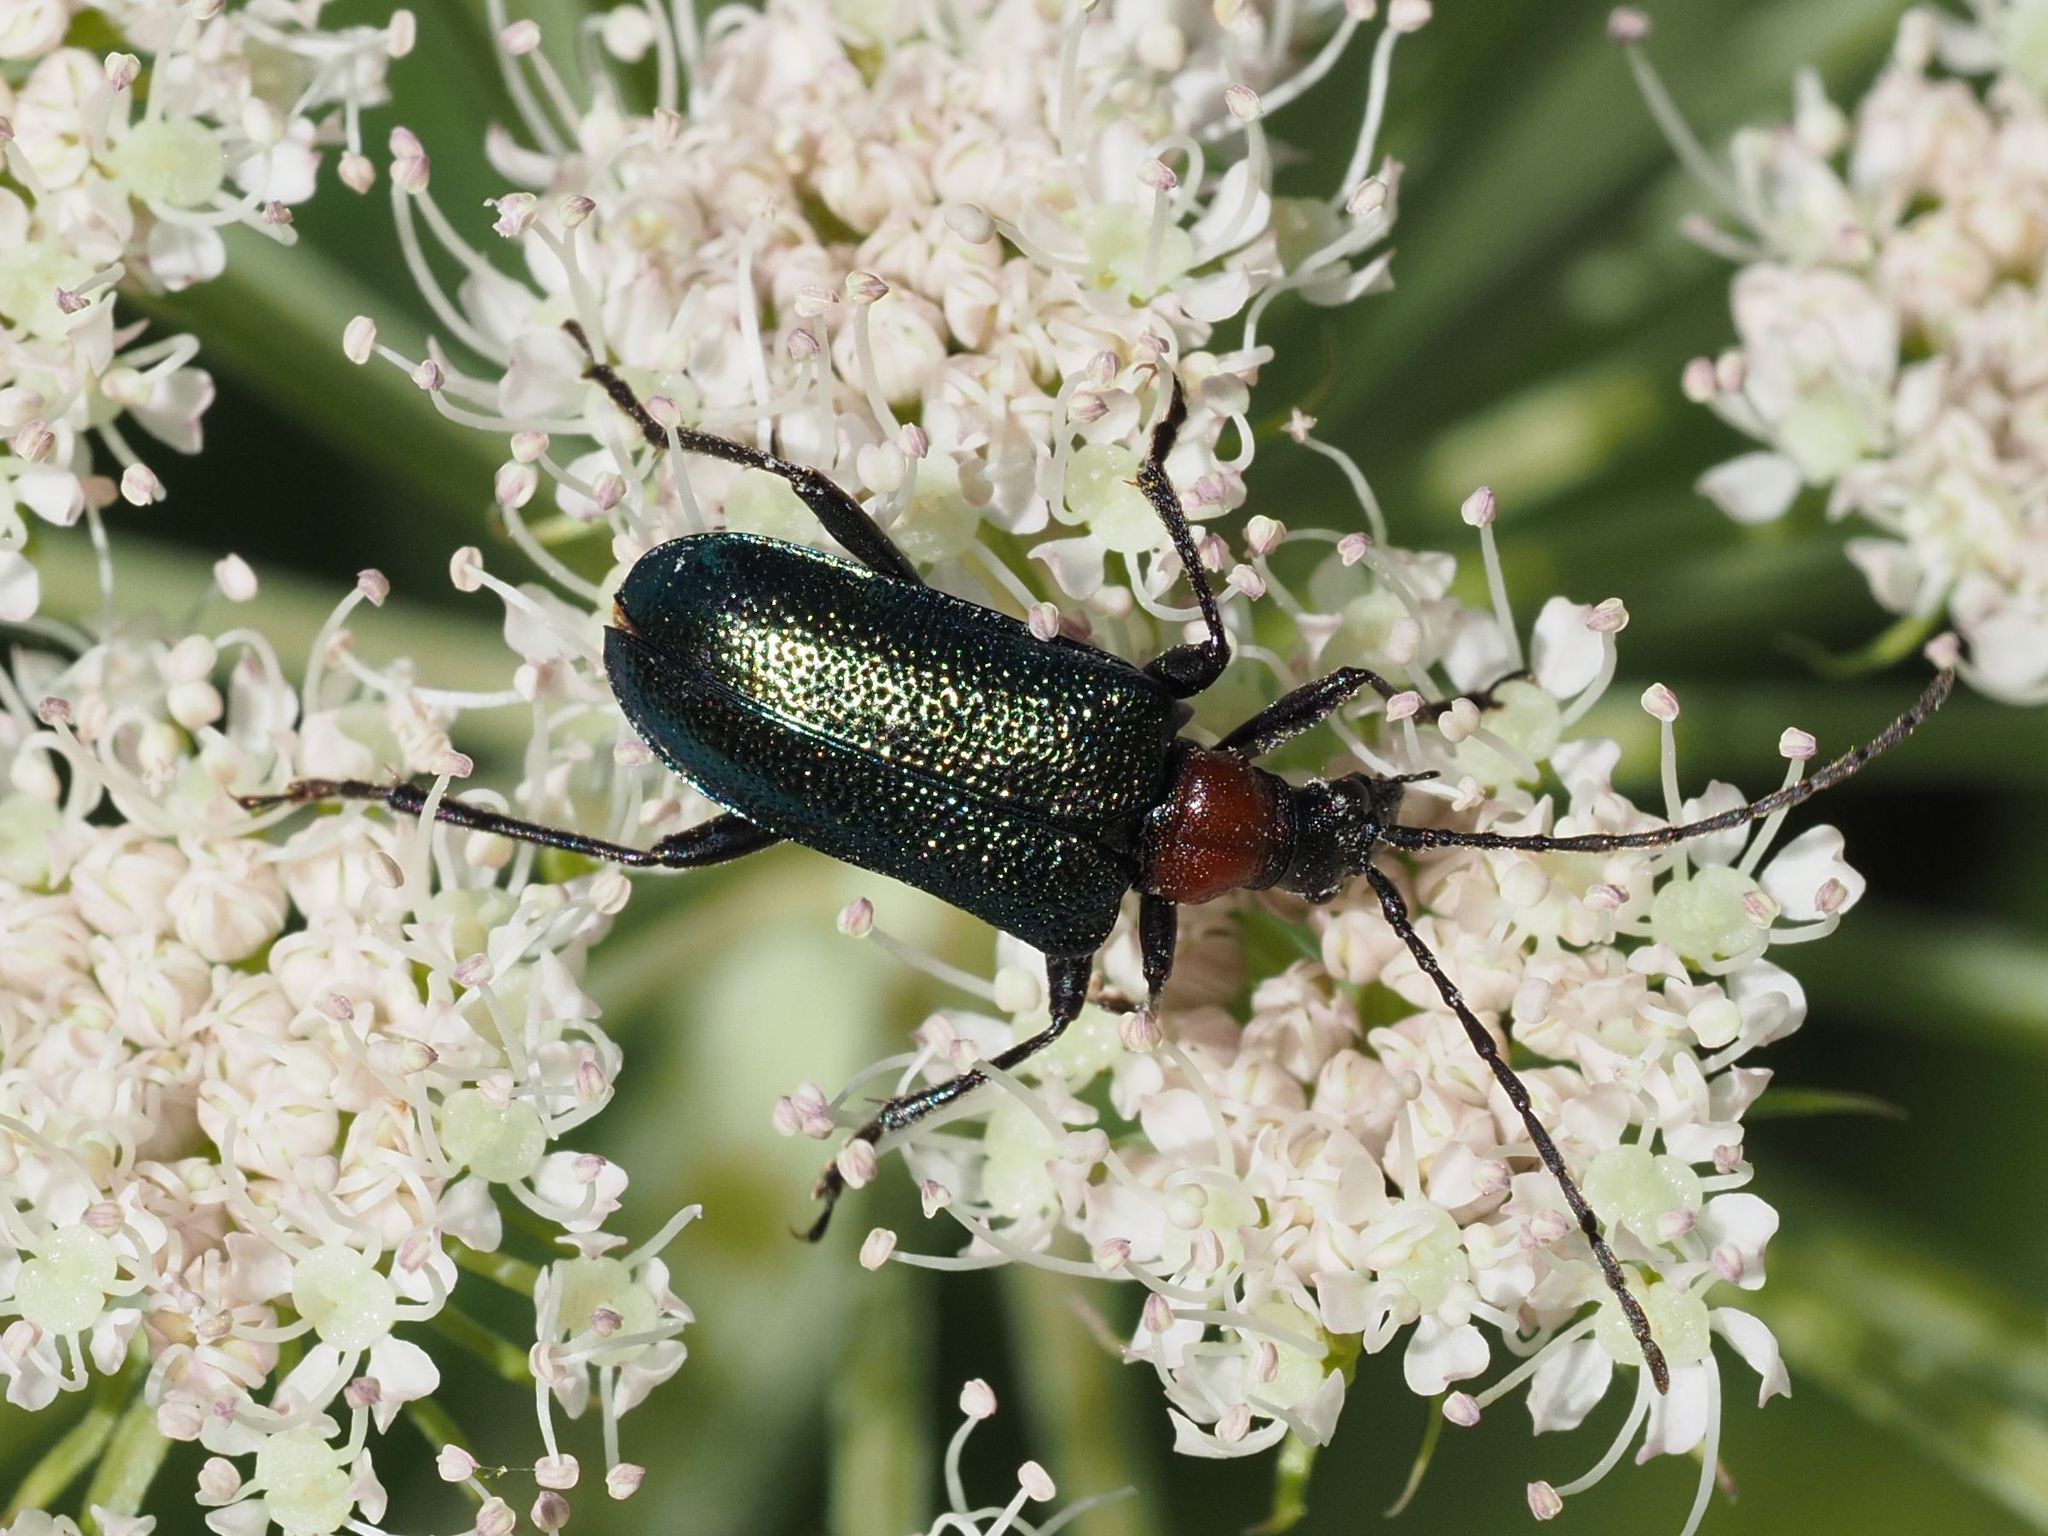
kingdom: Animalia
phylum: Arthropoda
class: Insecta
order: Coleoptera
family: Cerambycidae
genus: Gaurotes
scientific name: Gaurotes virginea
